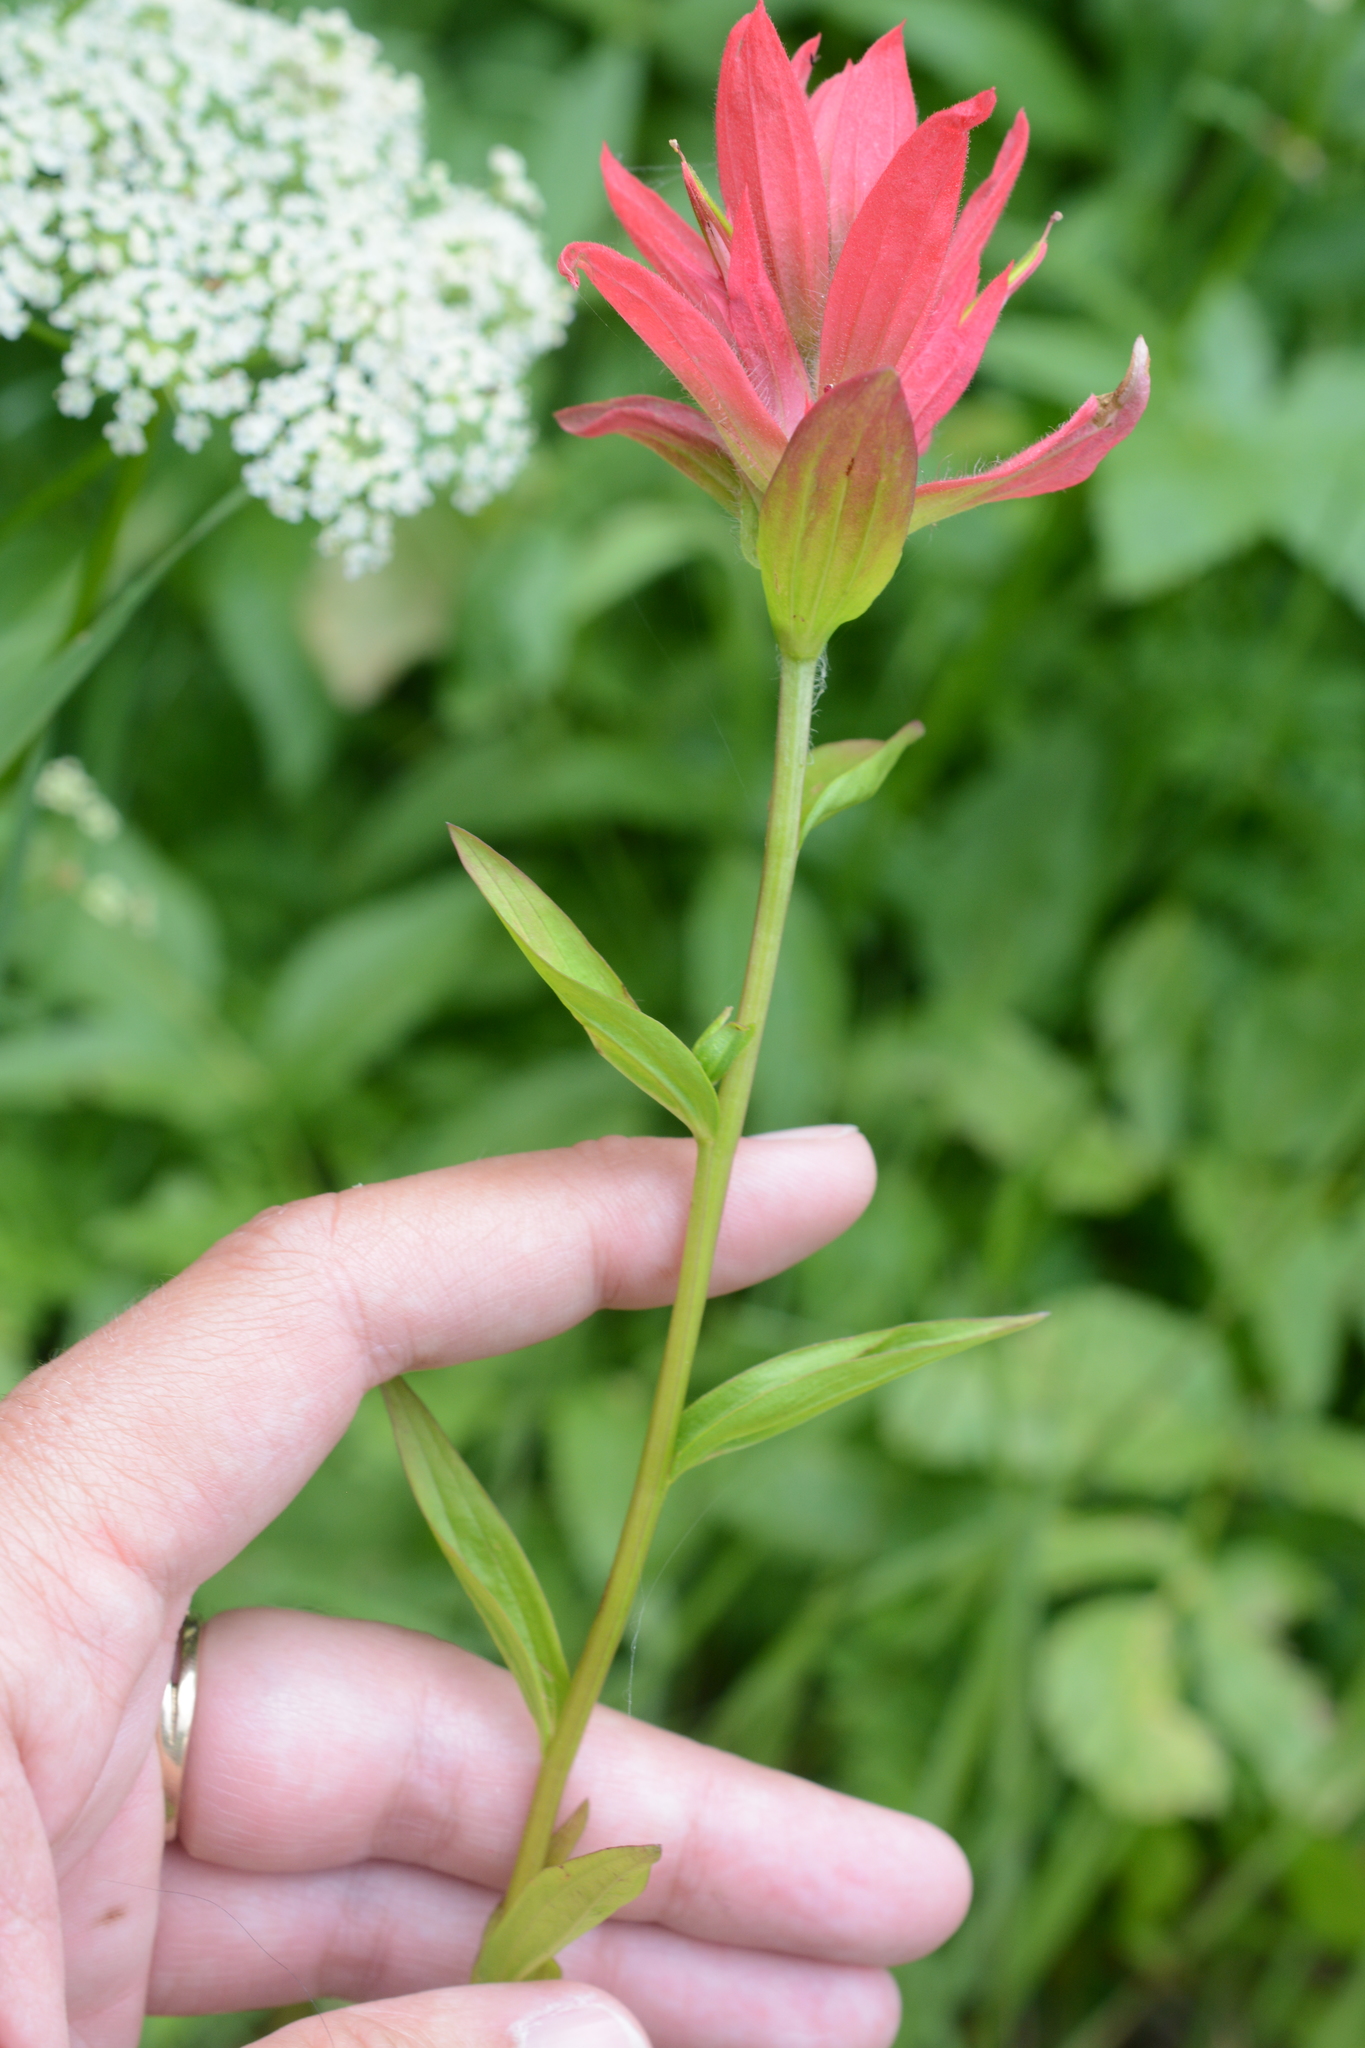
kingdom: Plantae
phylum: Tracheophyta
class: Magnoliopsida
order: Lamiales
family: Orobanchaceae
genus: Castilleja
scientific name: Castilleja miniata
